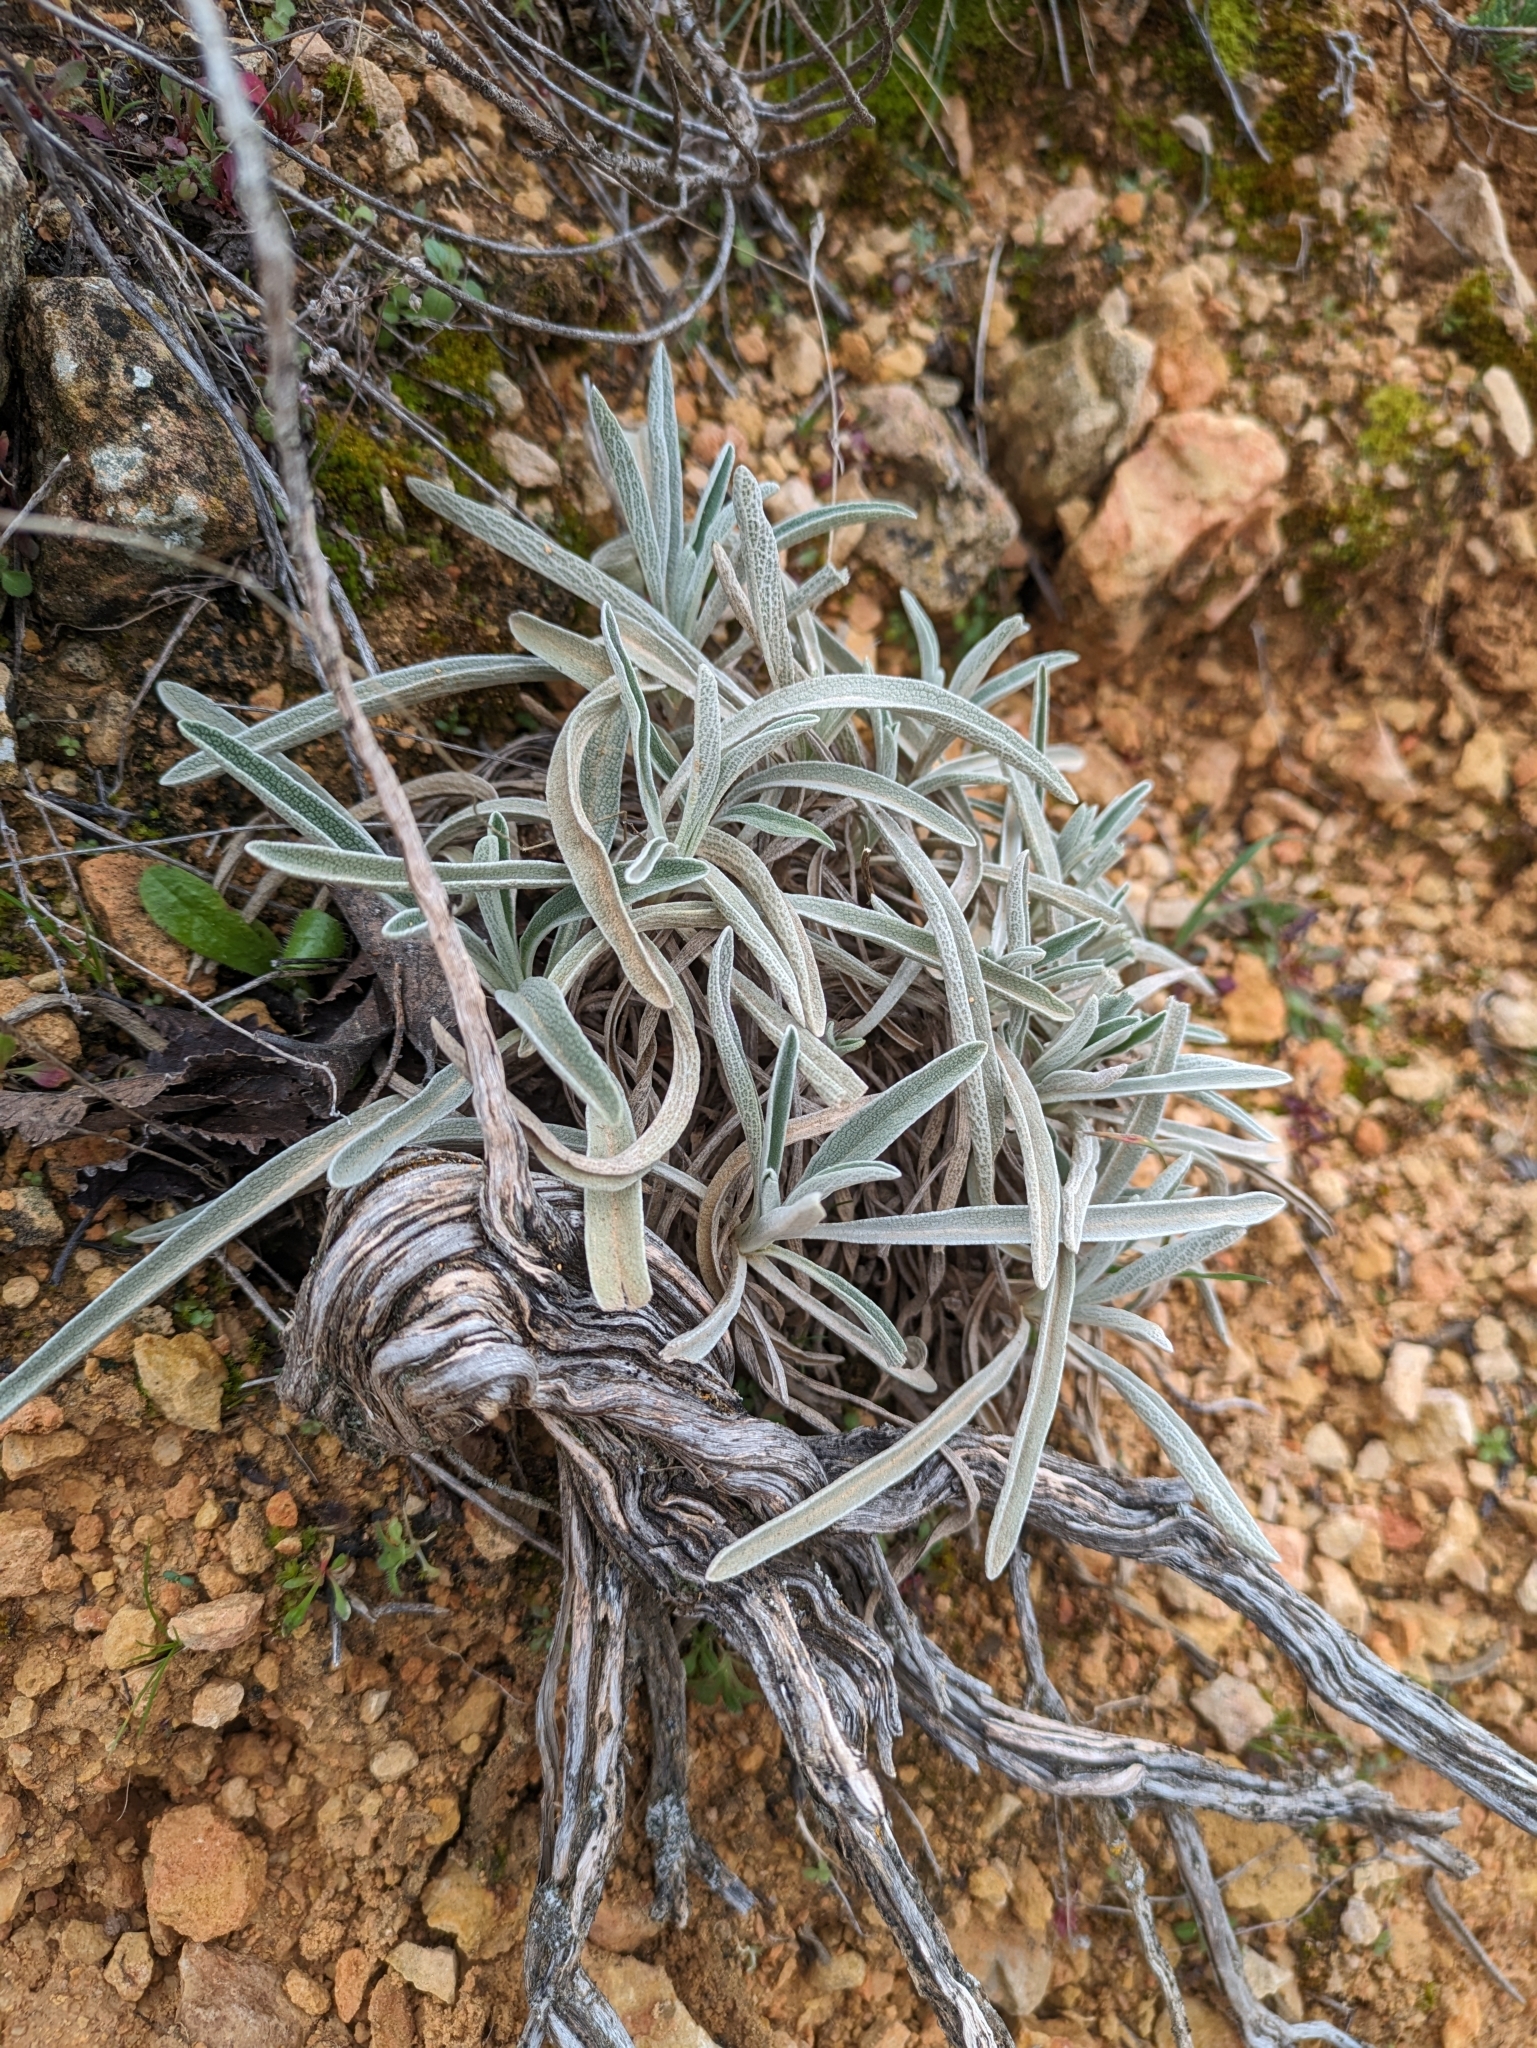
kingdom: Plantae
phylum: Tracheophyta
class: Magnoliopsida
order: Lamiales
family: Lamiaceae
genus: Phlomis
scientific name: Phlomis lychnitis
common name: Lampwickplant
